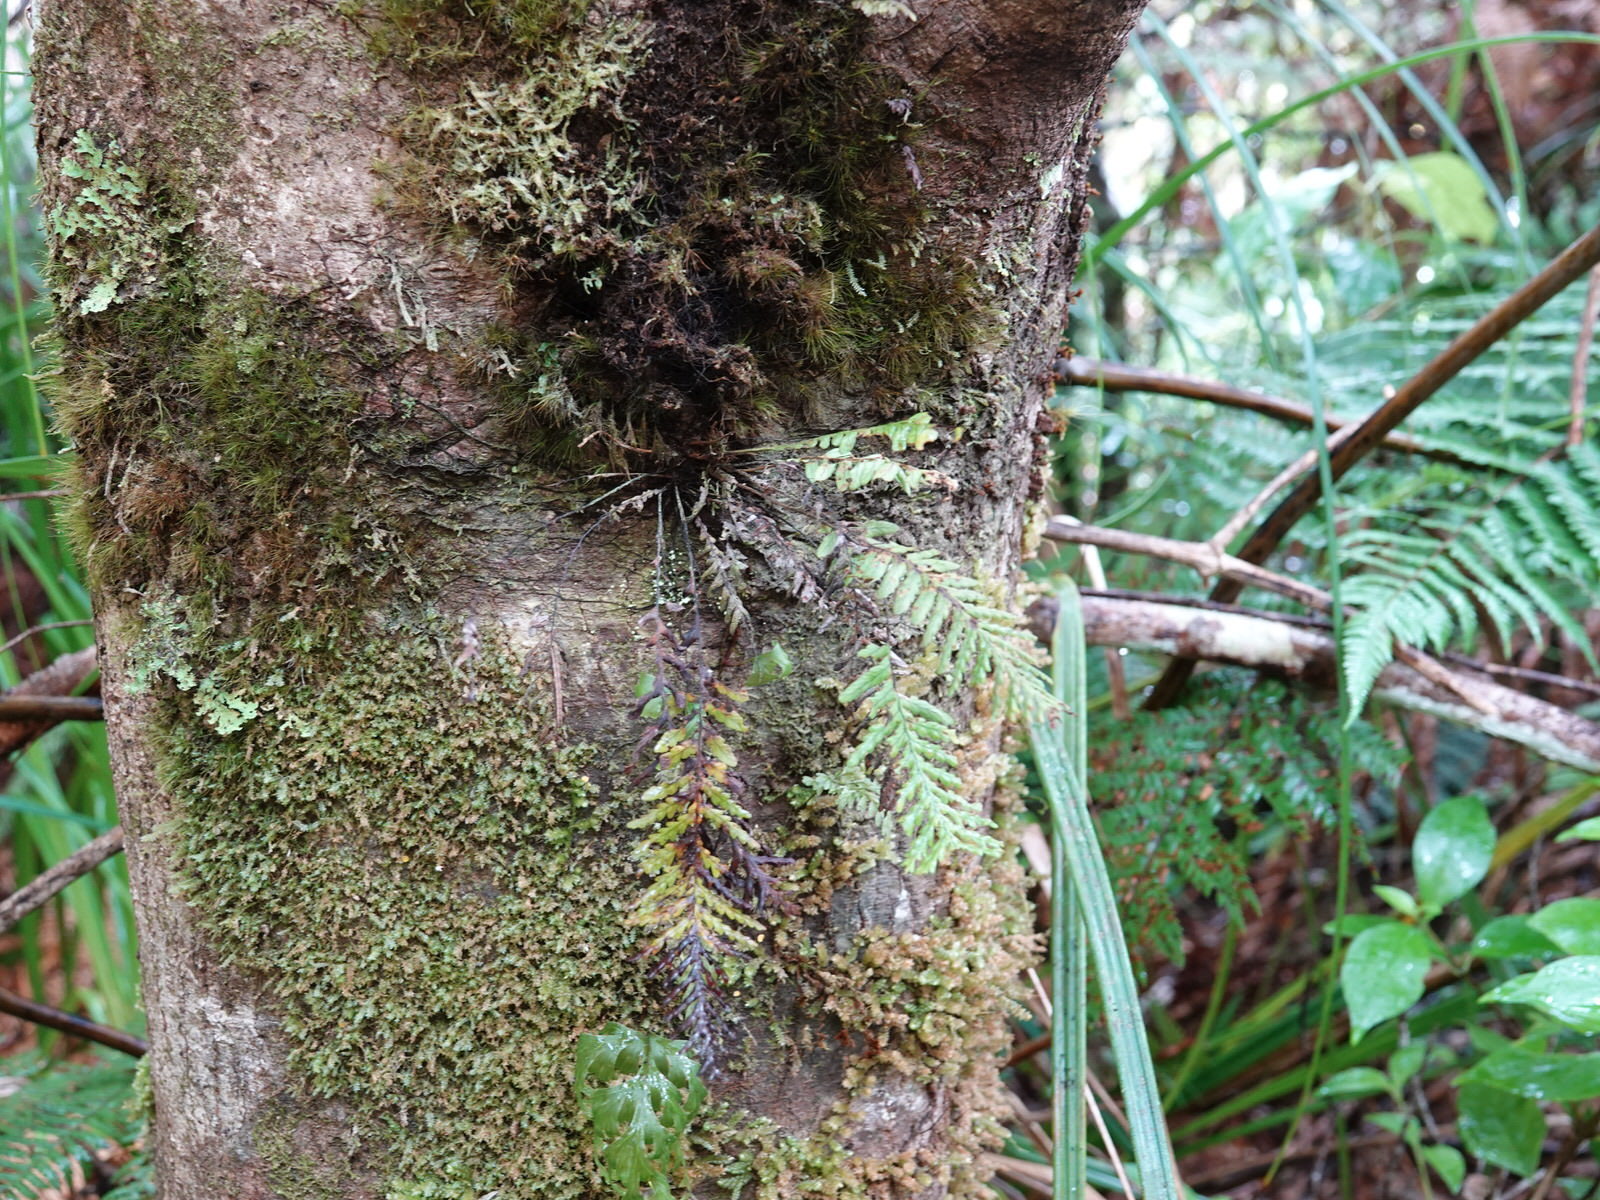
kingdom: Plantae
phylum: Tracheophyta
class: Polypodiopsida
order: Polypodiales
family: Polypodiaceae
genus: Notogrammitis
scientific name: Notogrammitis heterophylla
